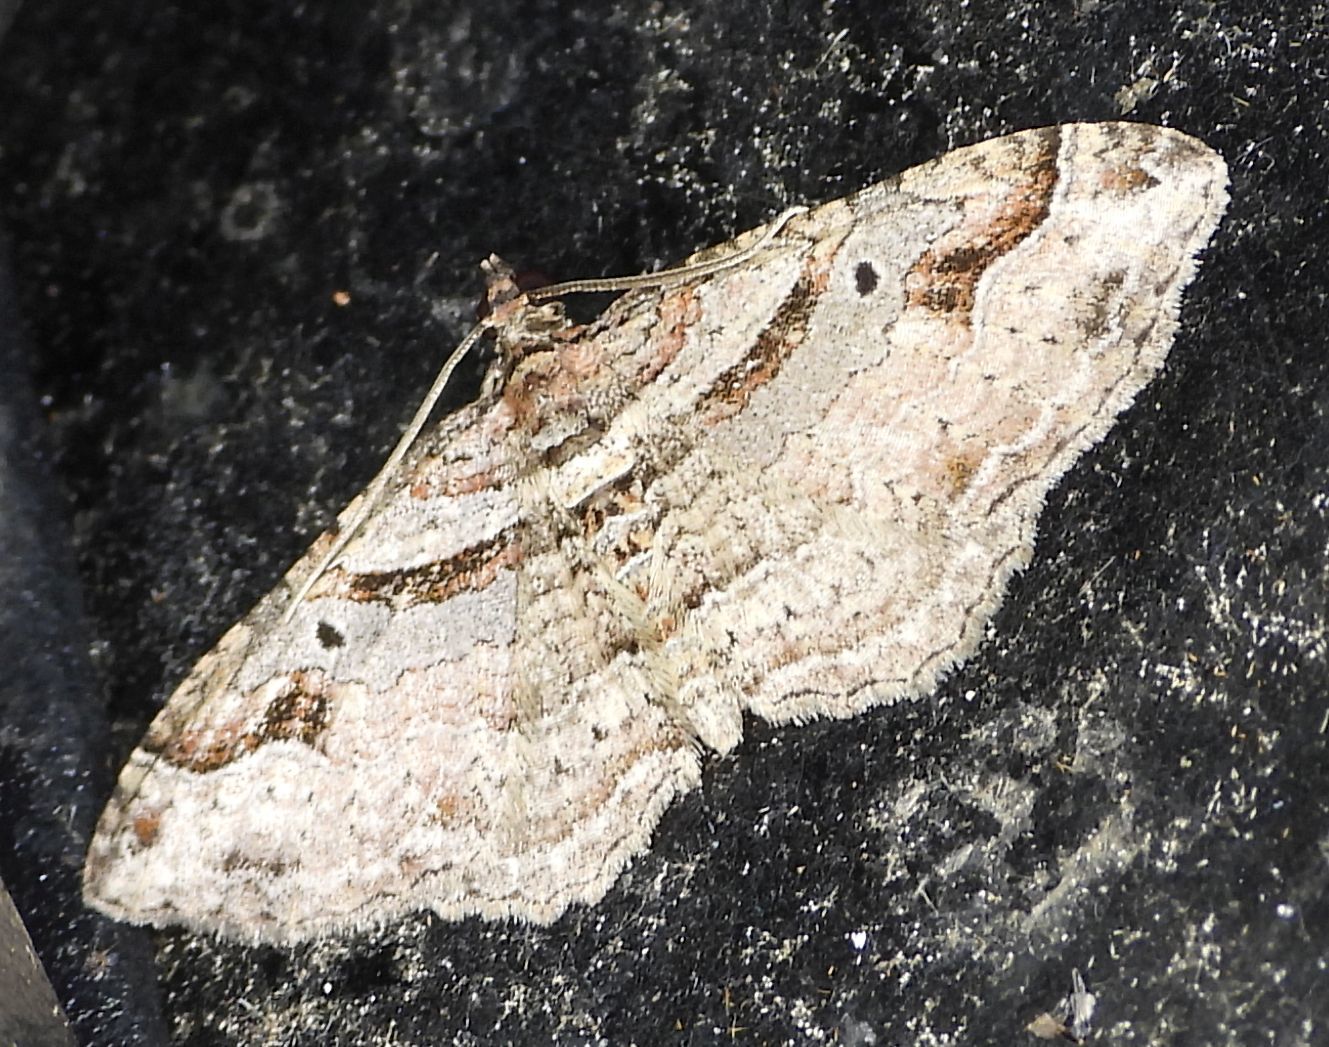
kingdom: Animalia
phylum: Arthropoda
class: Insecta
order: Lepidoptera
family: Geometridae
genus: Costaconvexa
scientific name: Costaconvexa centrostrigaria
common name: Bent-line carpet
